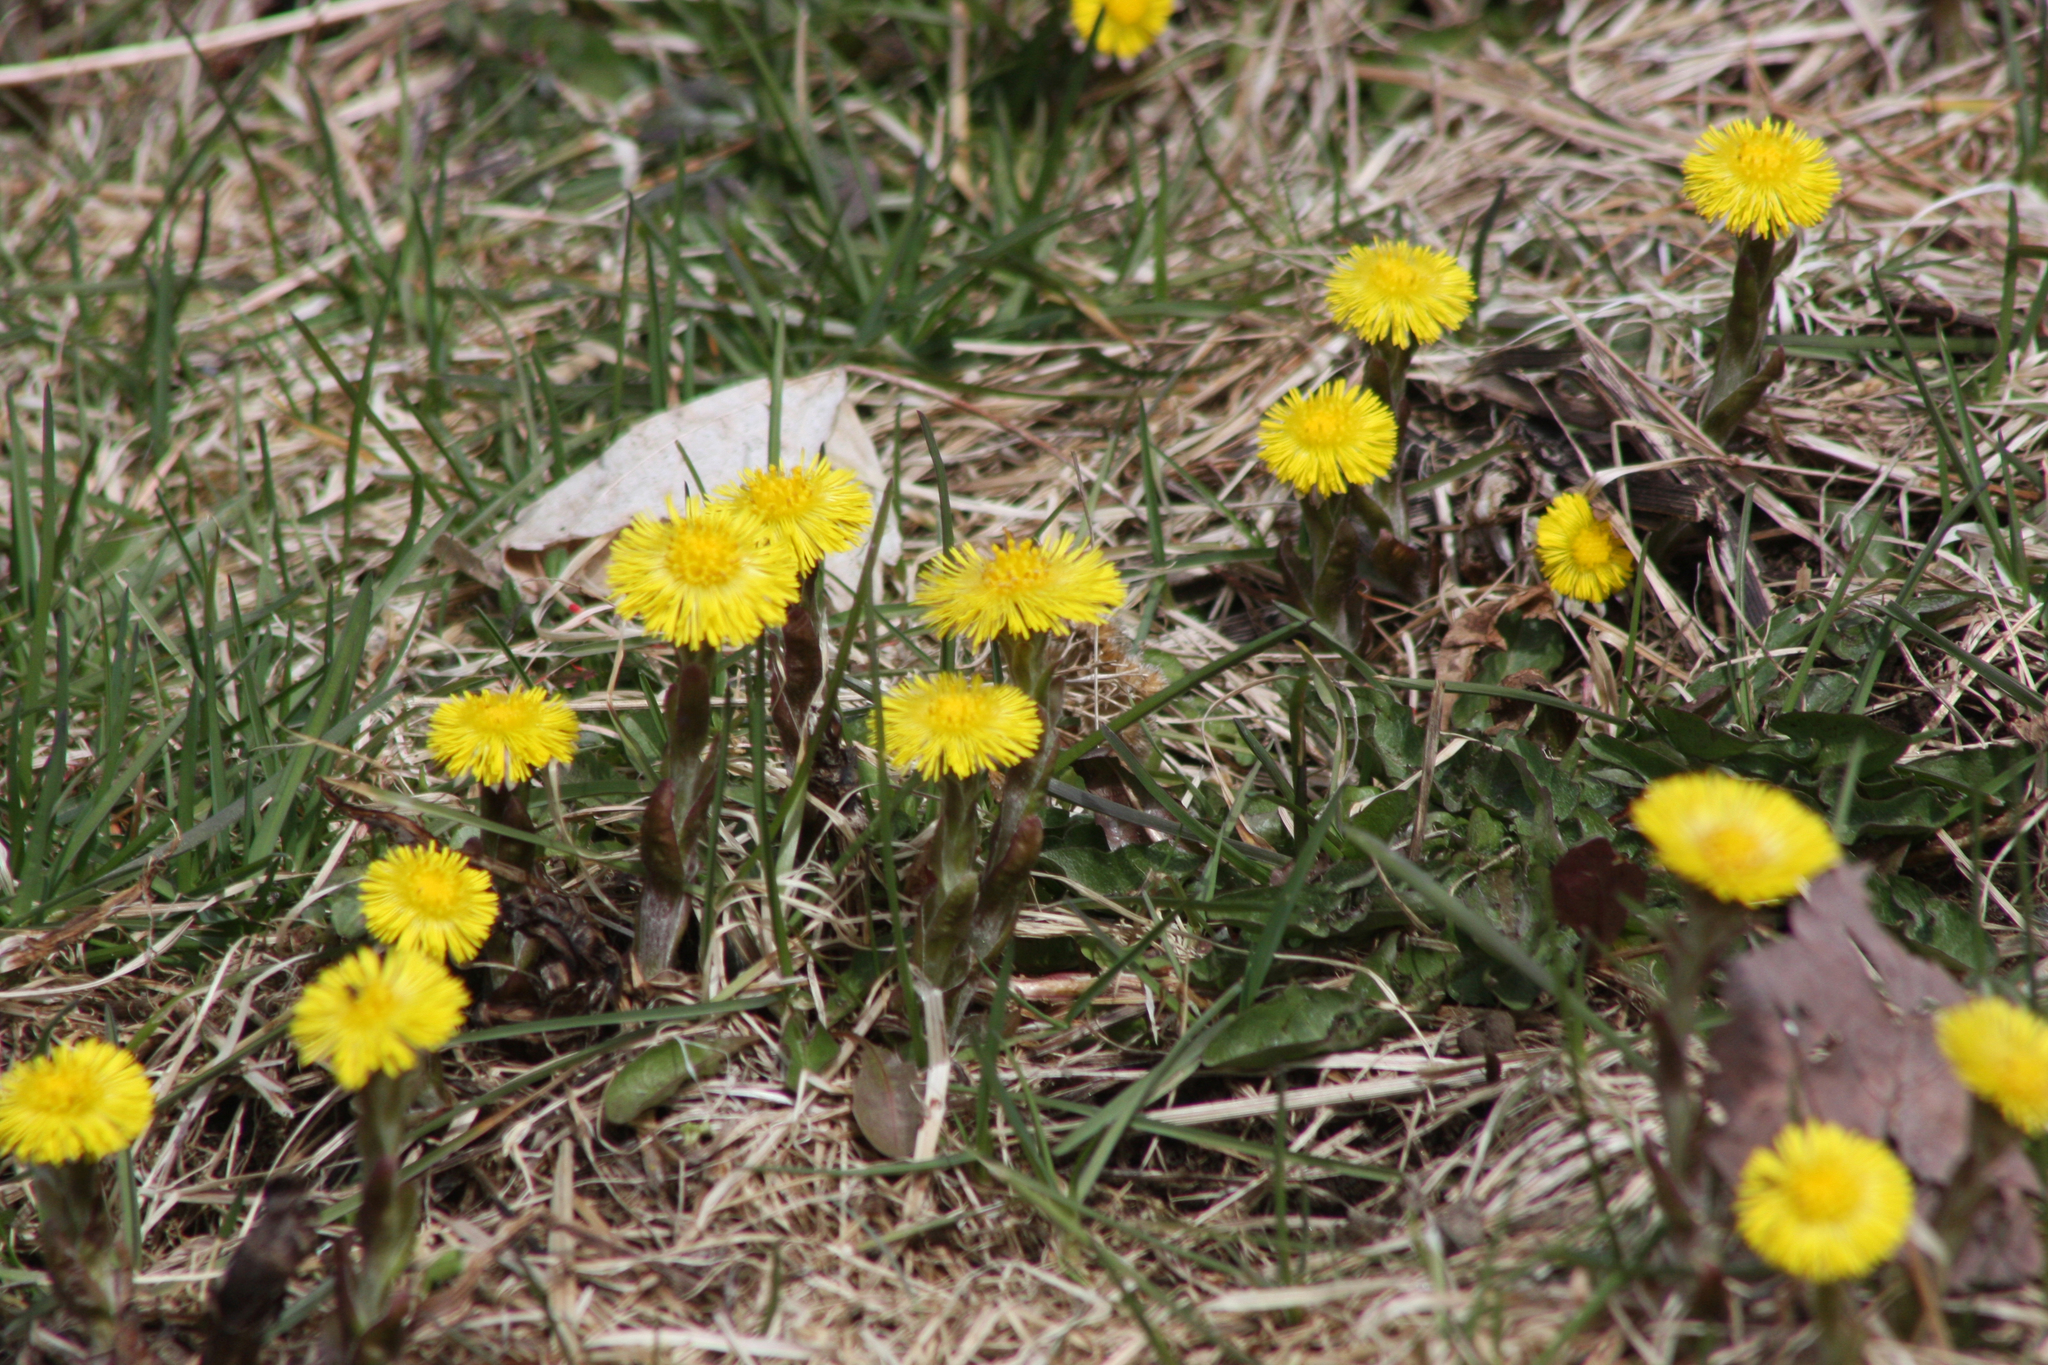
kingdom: Plantae
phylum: Tracheophyta
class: Magnoliopsida
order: Asterales
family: Asteraceae
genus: Tussilago
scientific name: Tussilago farfara
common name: Coltsfoot
